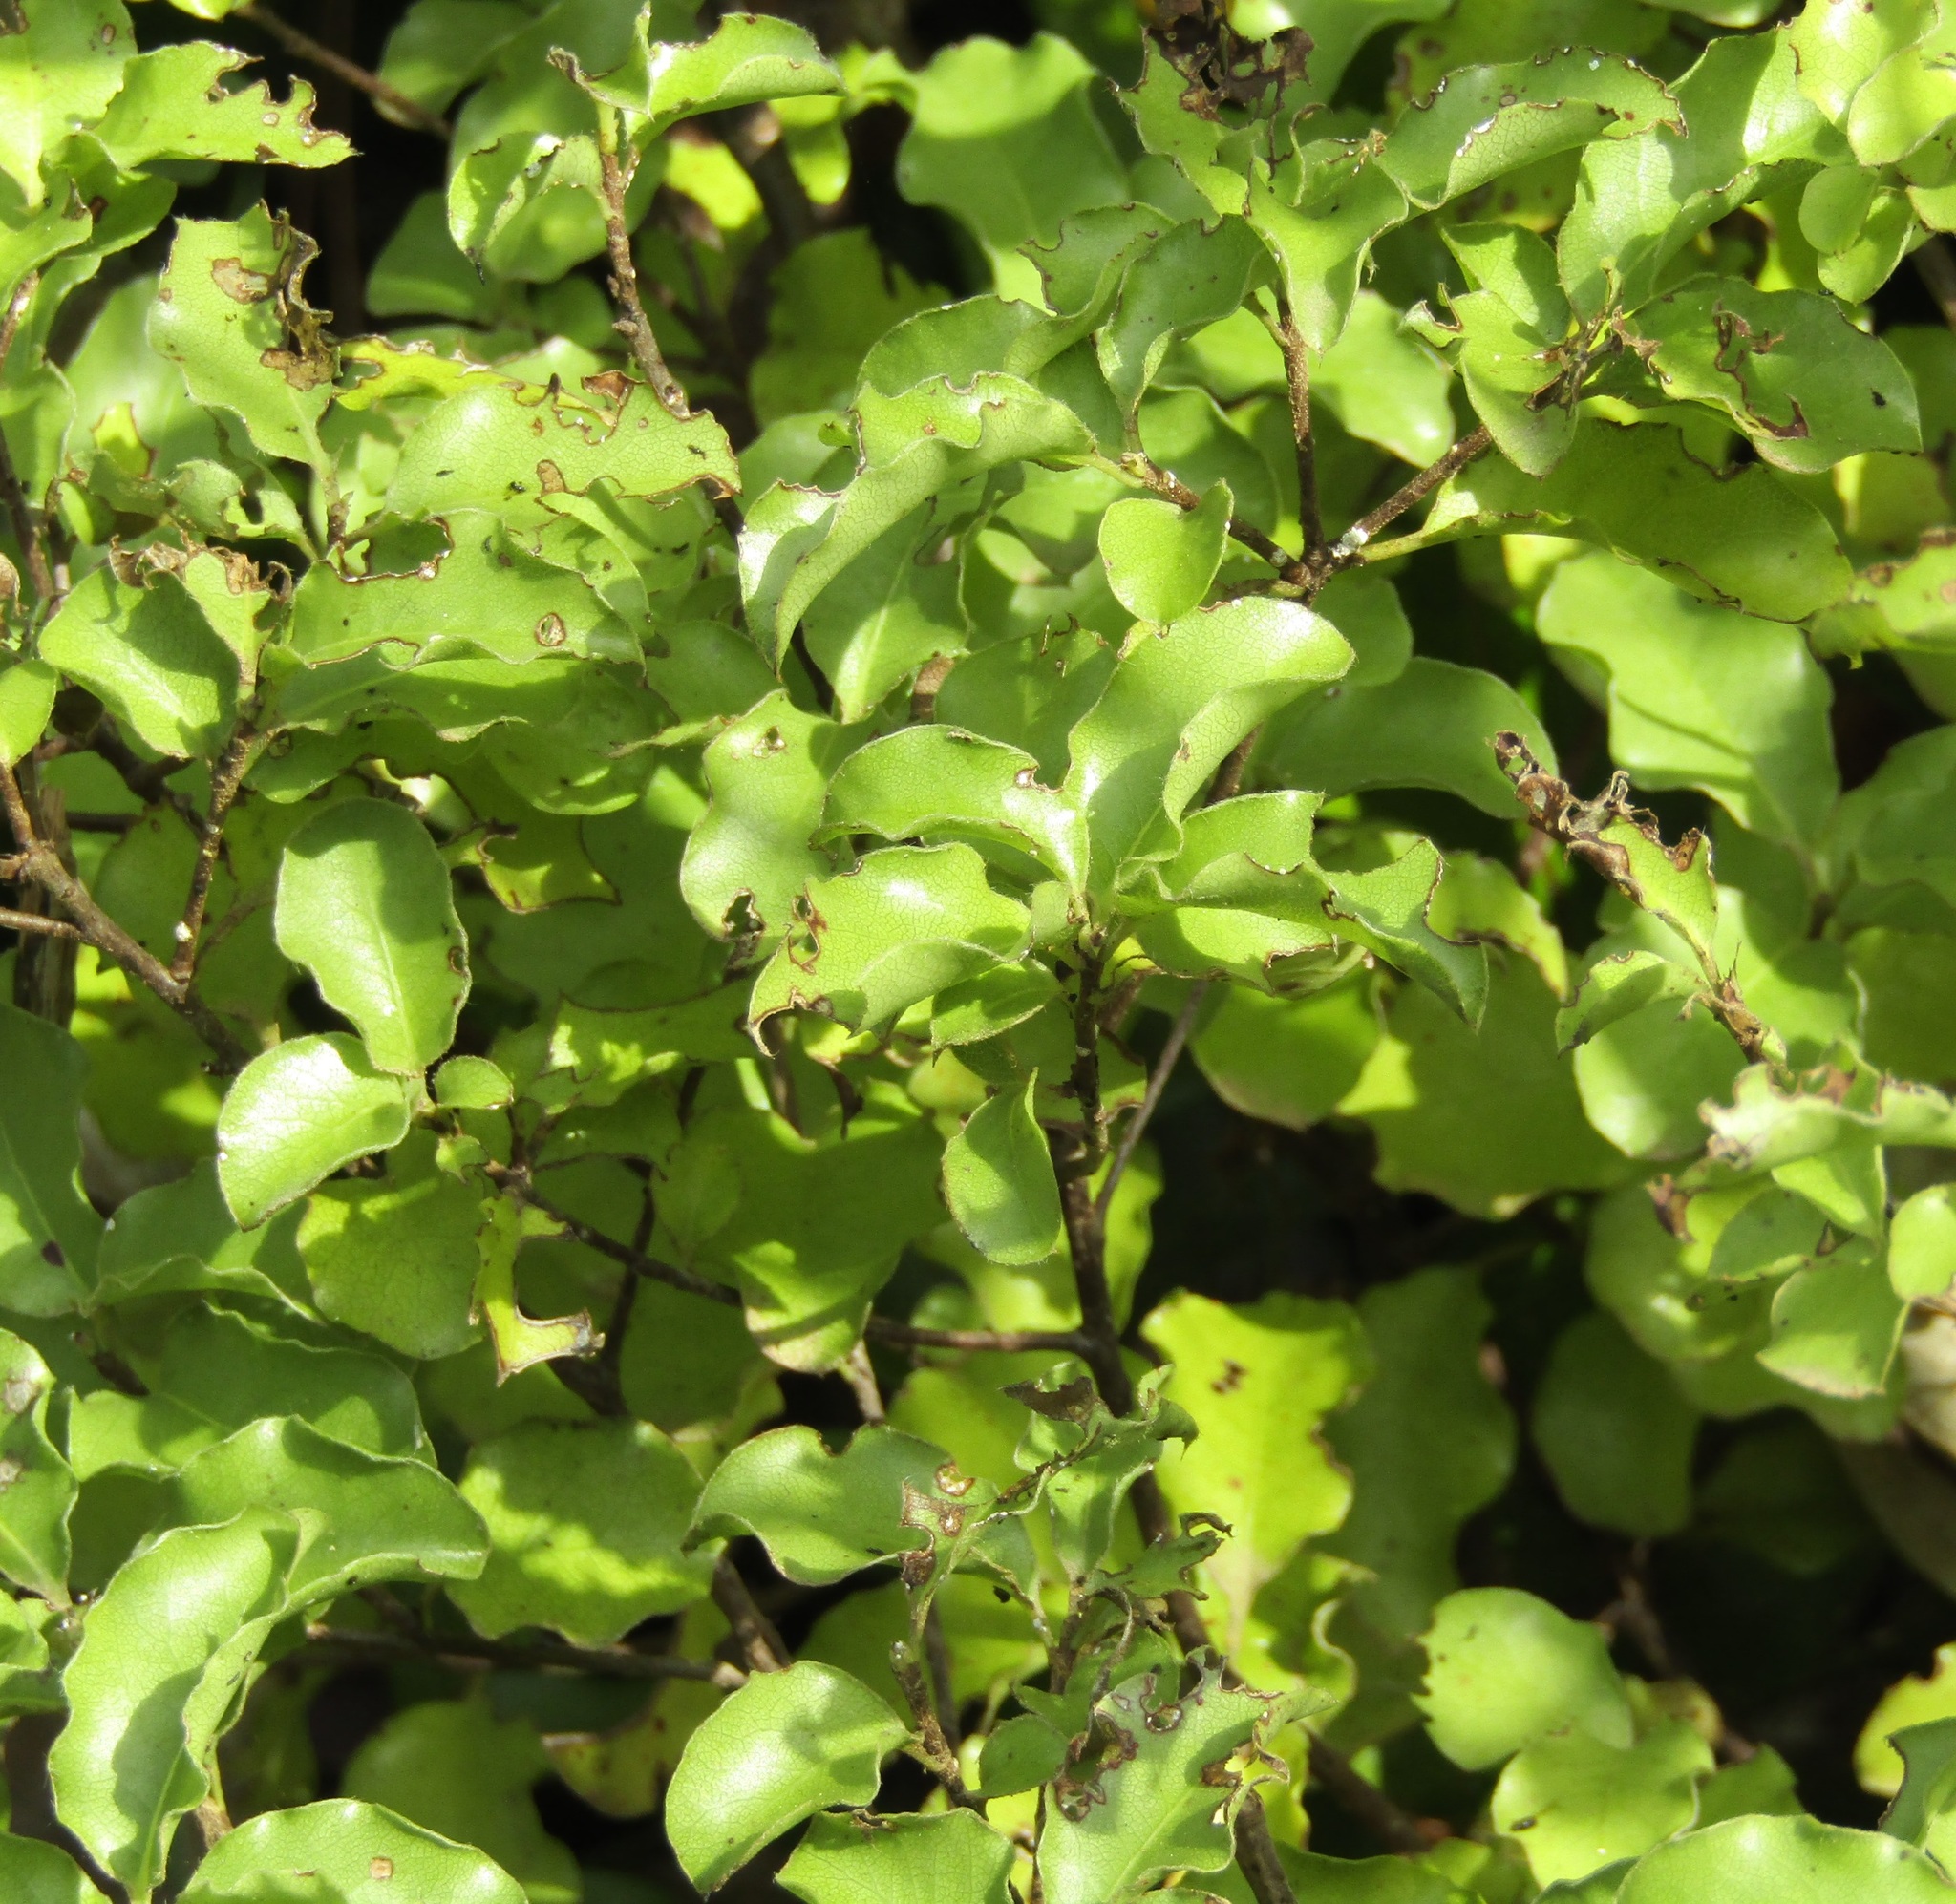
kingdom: Plantae
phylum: Tracheophyta
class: Magnoliopsida
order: Apiales
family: Pittosporaceae
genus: Pittosporum
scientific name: Pittosporum tenuifolium
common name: Kohuhu
